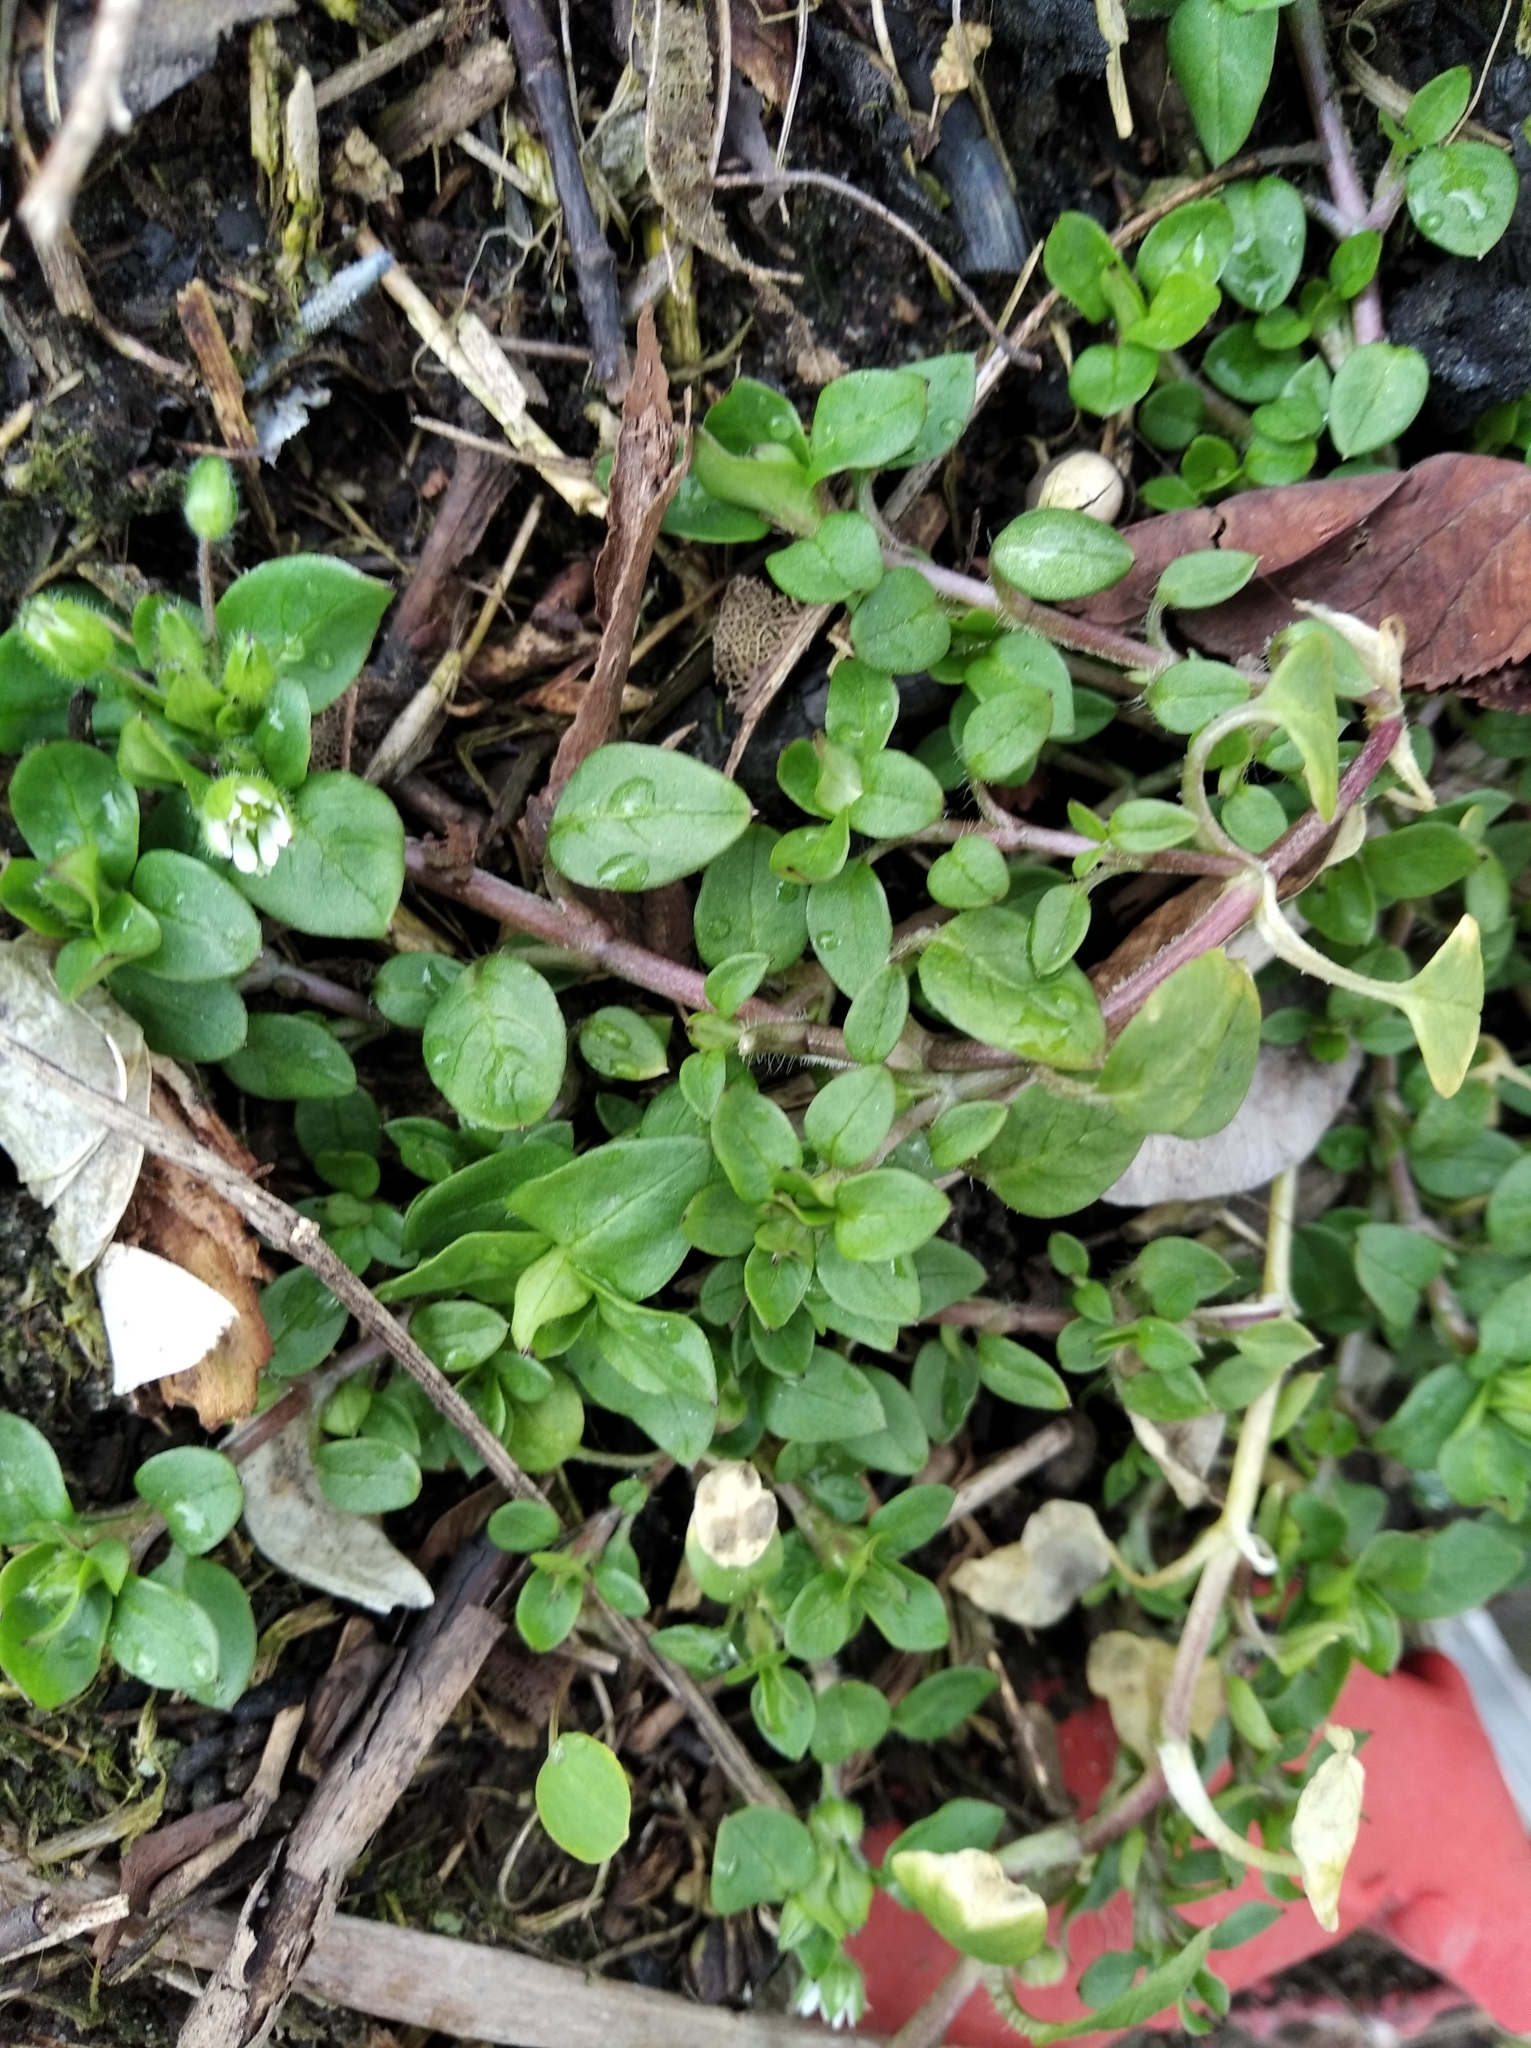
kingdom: Plantae
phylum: Tracheophyta
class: Magnoliopsida
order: Caryophyllales
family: Caryophyllaceae
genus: Stellaria
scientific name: Stellaria media
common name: Common chickweed
